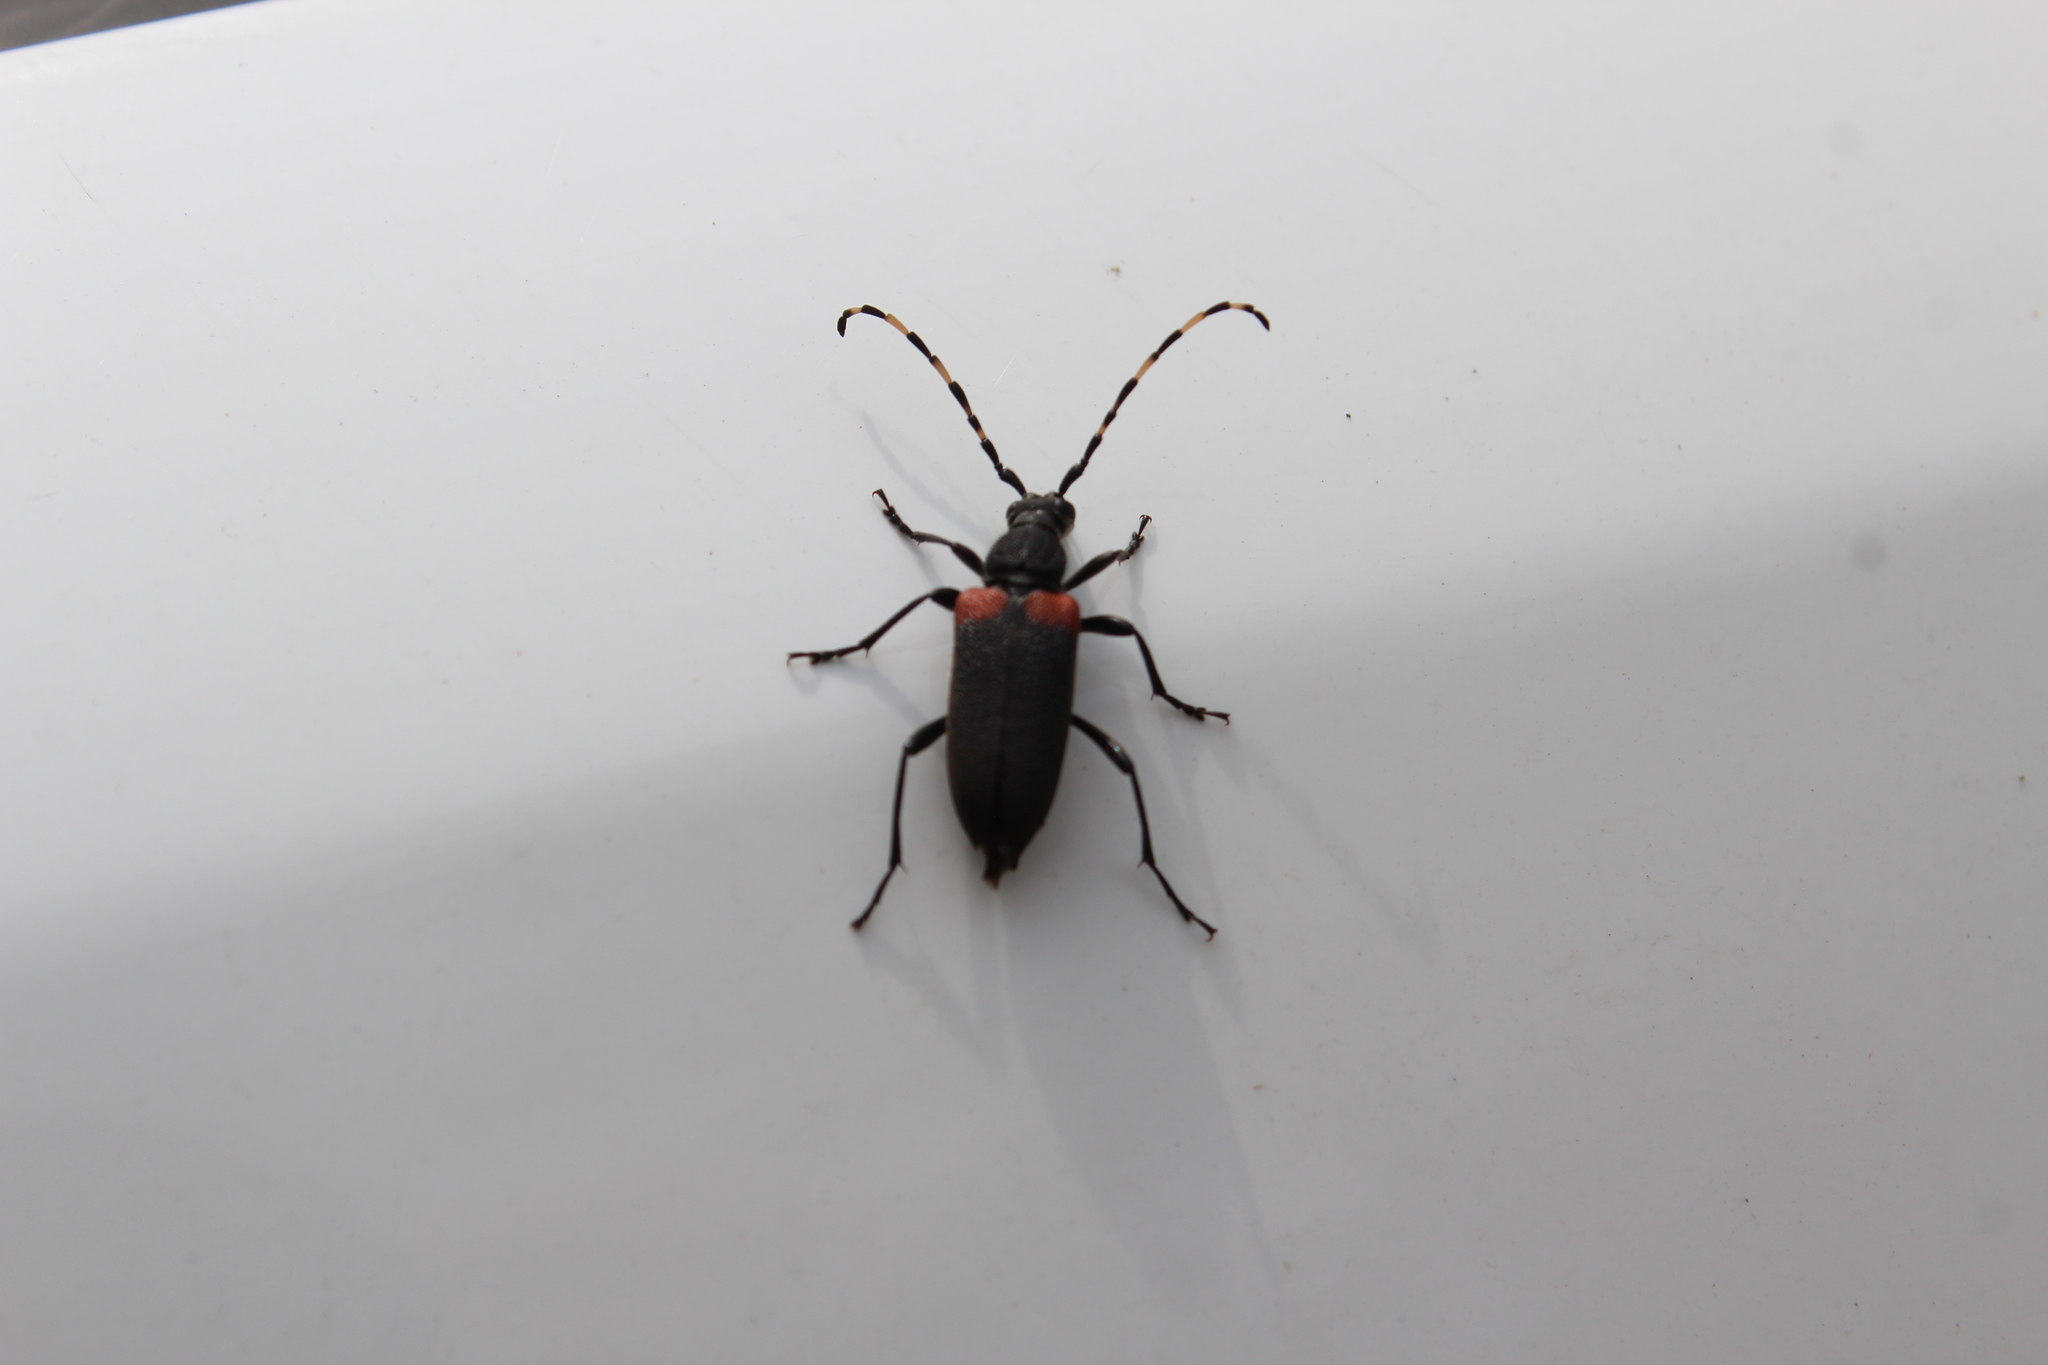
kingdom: Animalia
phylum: Arthropoda
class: Insecta
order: Coleoptera
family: Cerambycidae
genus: Stictoleptura
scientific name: Stictoleptura canadensis
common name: Red-shouldered pine borer
